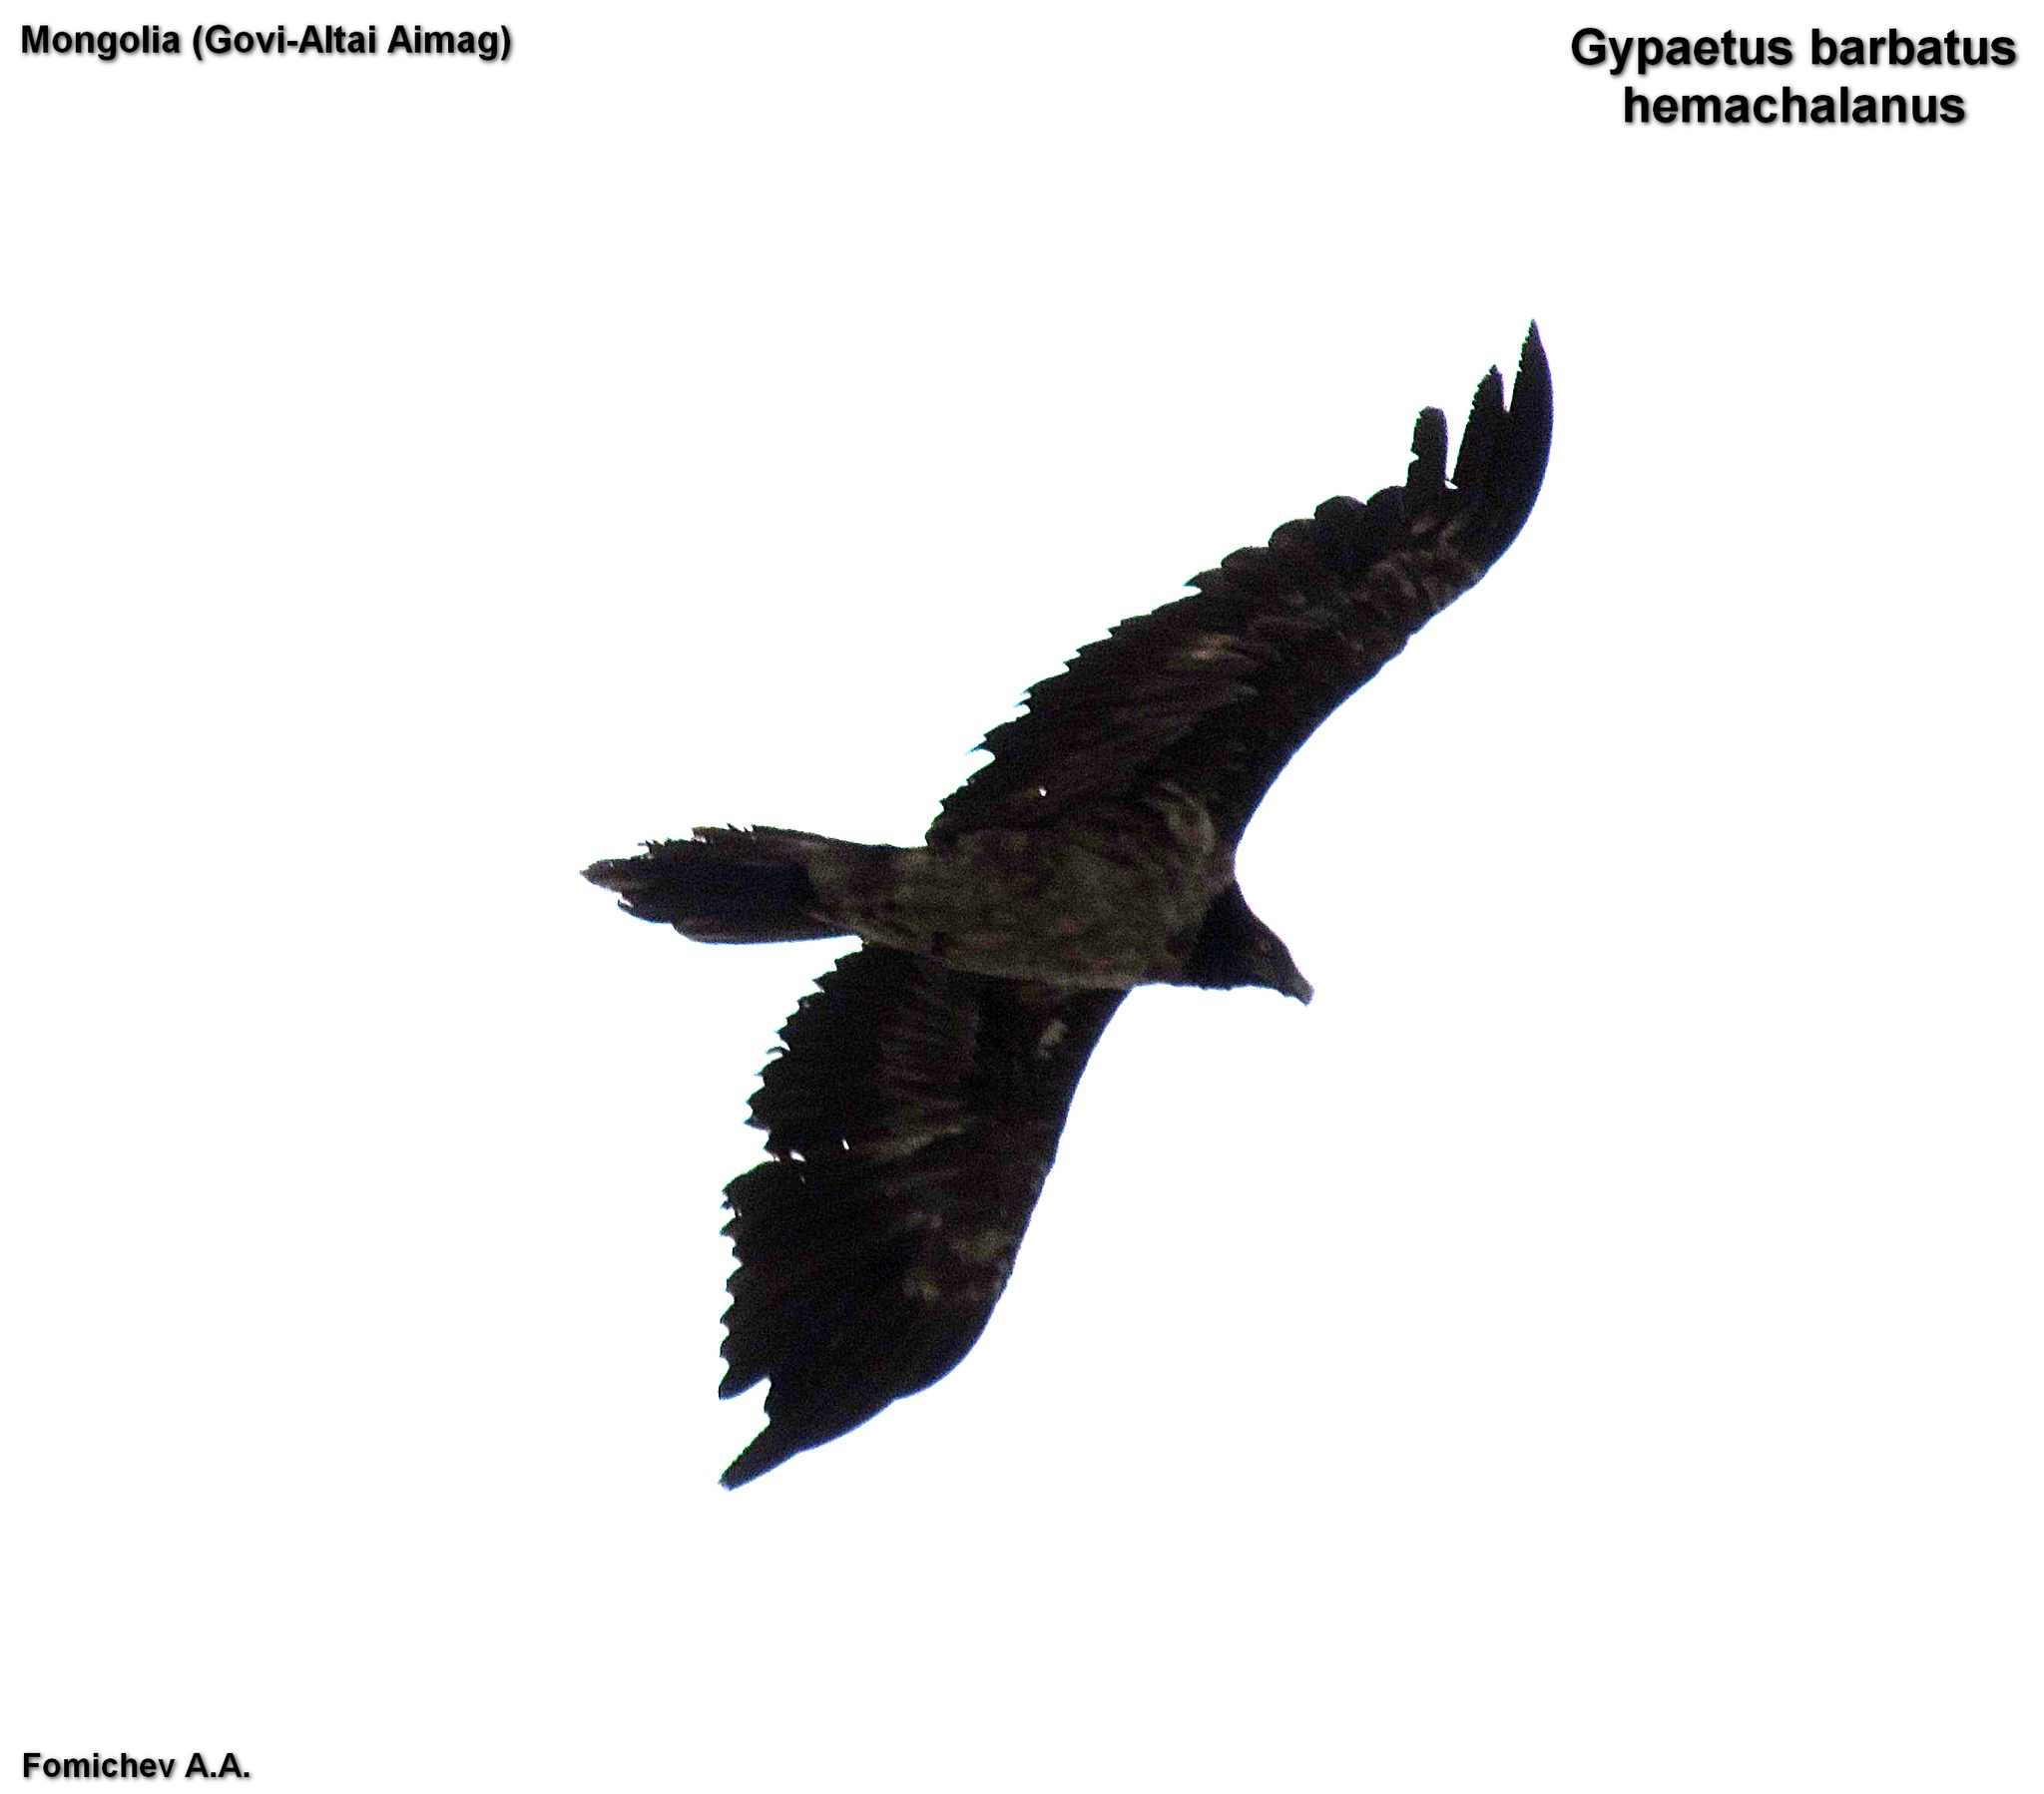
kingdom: Animalia
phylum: Chordata
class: Aves
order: Accipitriformes
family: Accipitridae
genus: Gypaetus
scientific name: Gypaetus barbatus
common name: Bearded vulture
